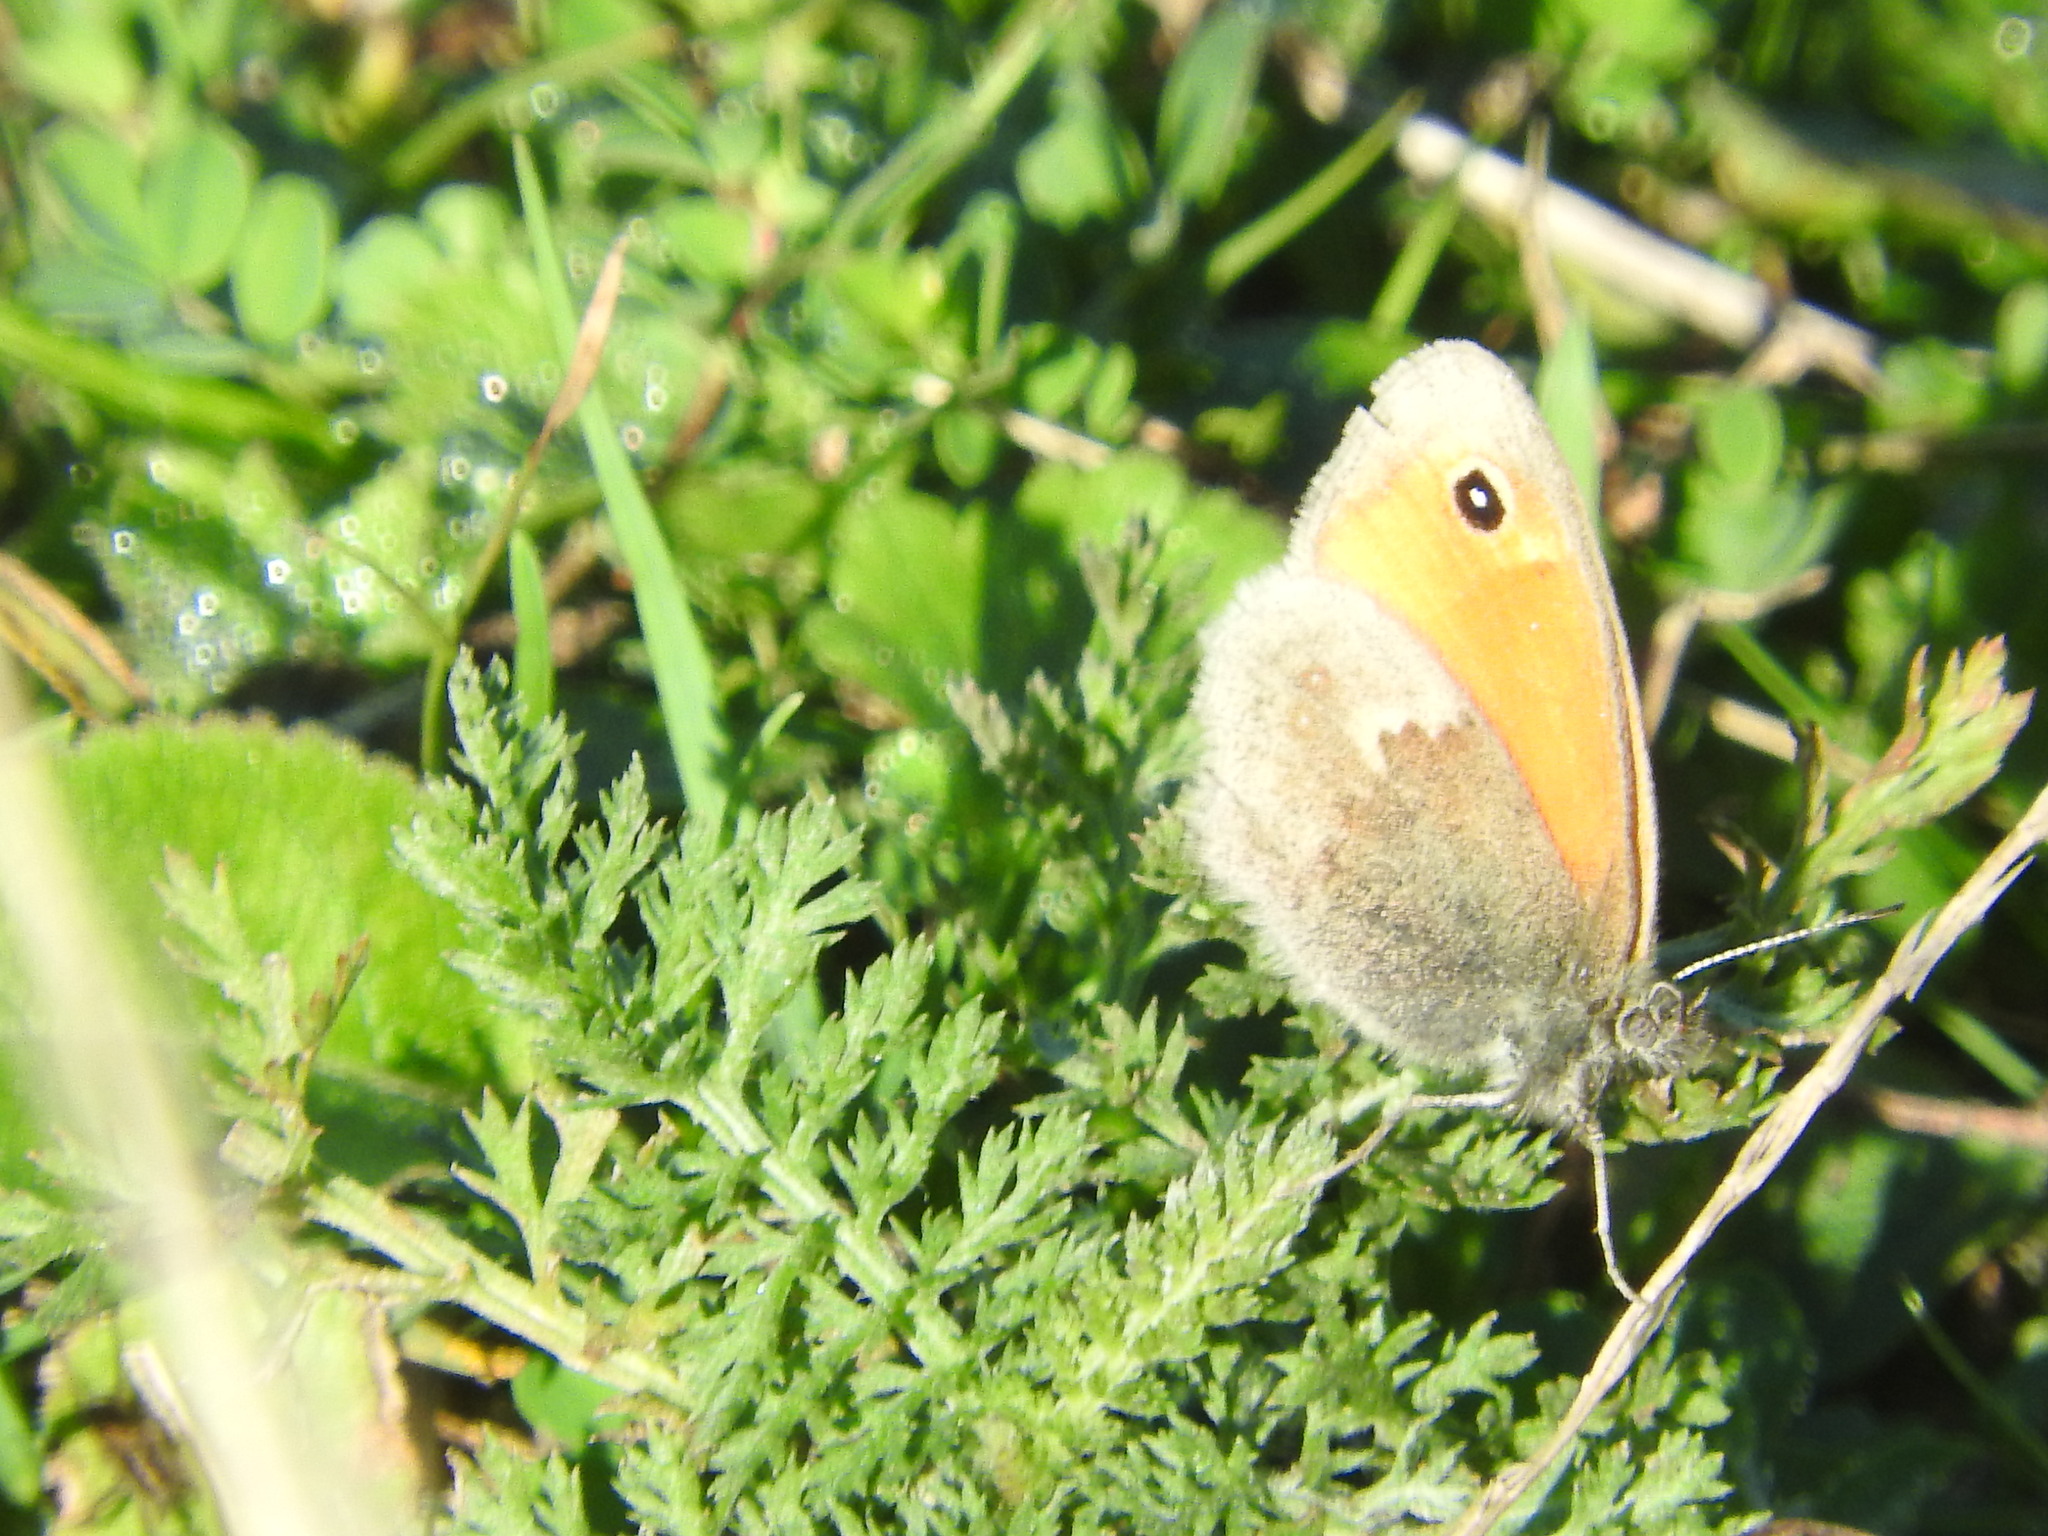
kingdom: Animalia
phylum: Arthropoda
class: Insecta
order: Lepidoptera
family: Nymphalidae
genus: Coenonympha
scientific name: Coenonympha pamphilus
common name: Small heath
